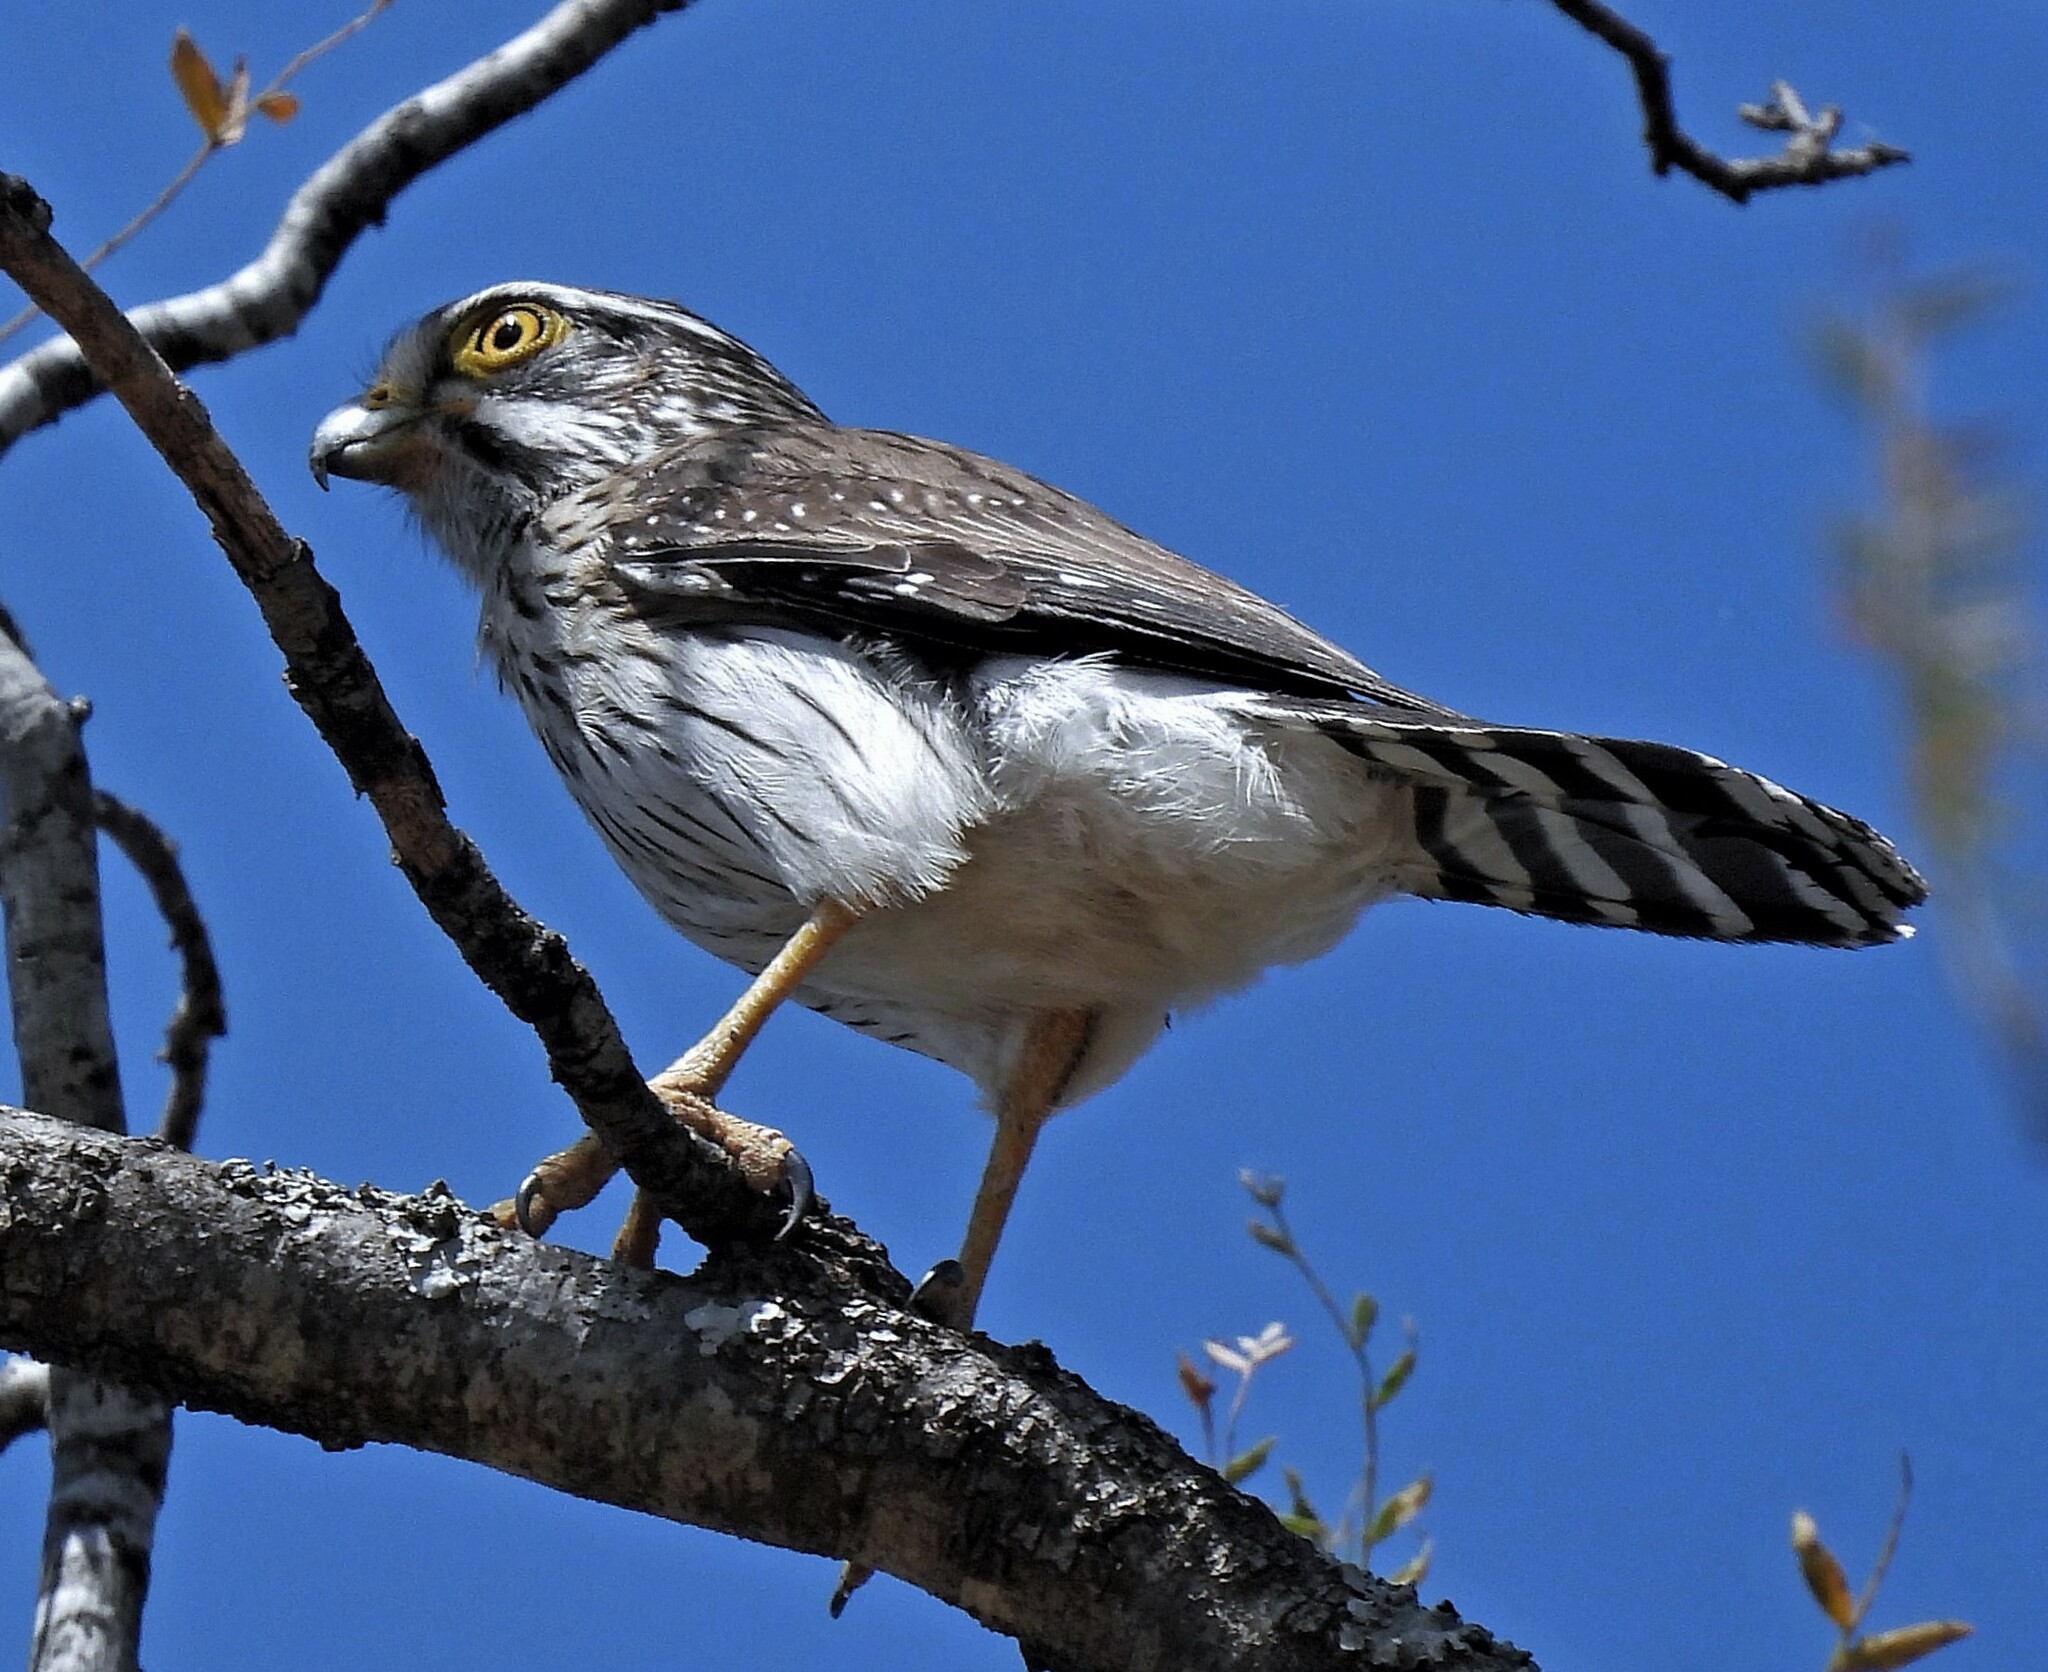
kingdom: Animalia
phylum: Chordata
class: Aves
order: Falconiformes
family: Falconidae
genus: Spiziapteryx
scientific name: Spiziapteryx circumcincta
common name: Spot-winged falconet
